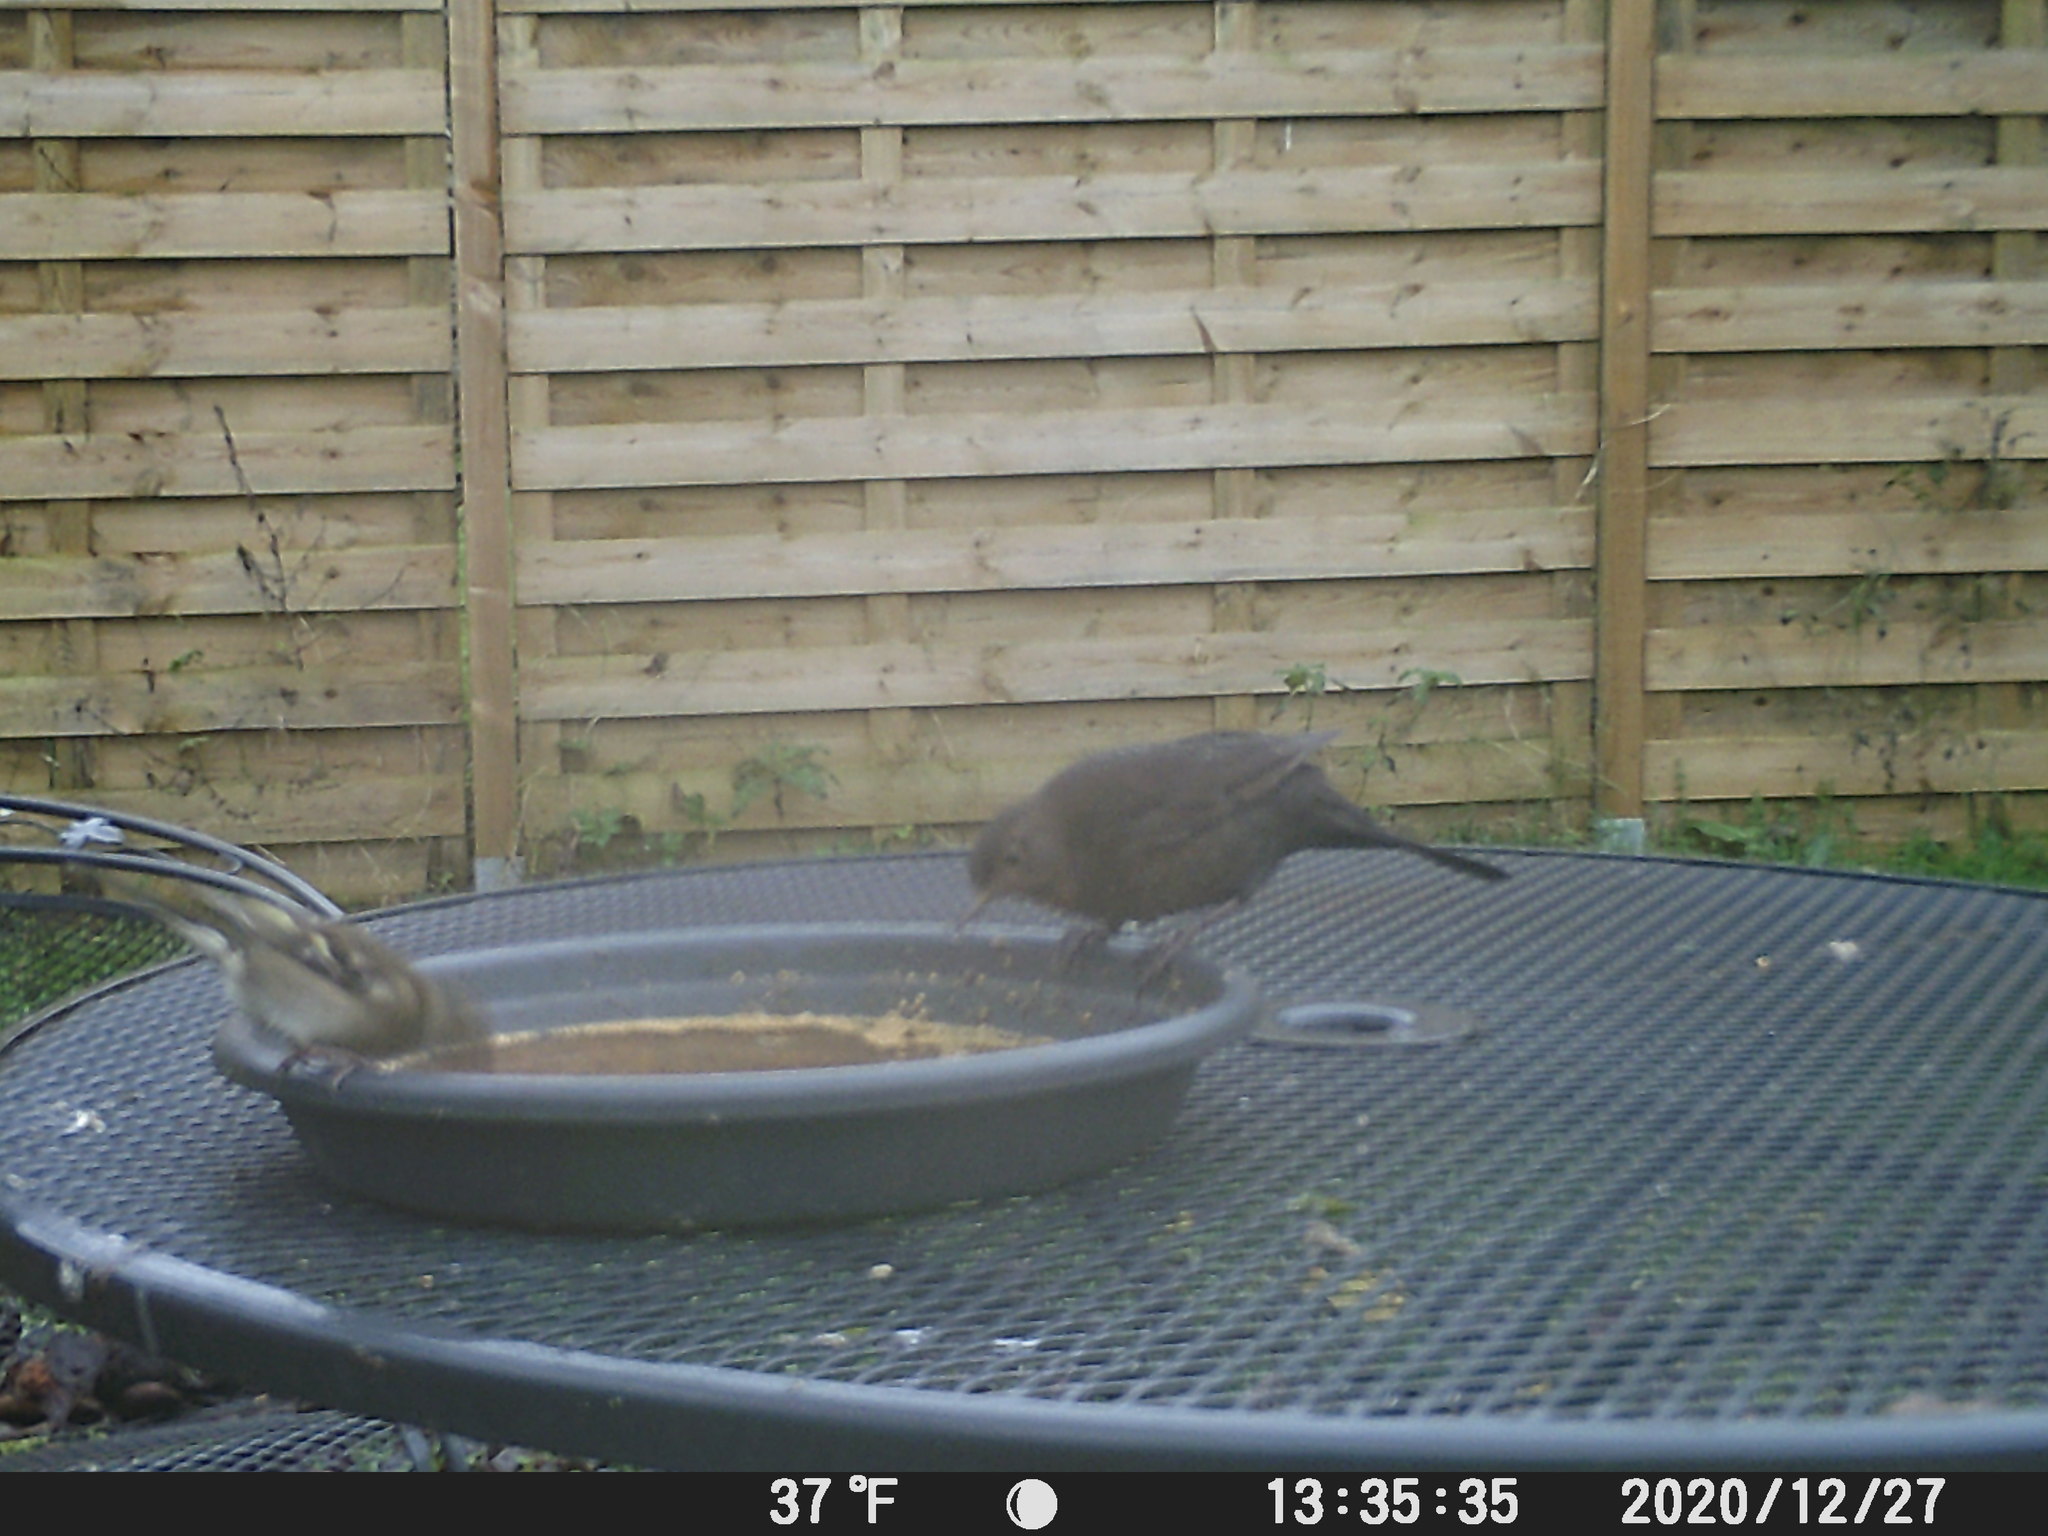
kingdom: Animalia
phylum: Chordata
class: Aves
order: Passeriformes
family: Fringillidae
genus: Fringilla
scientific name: Fringilla coelebs
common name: Common chaffinch
